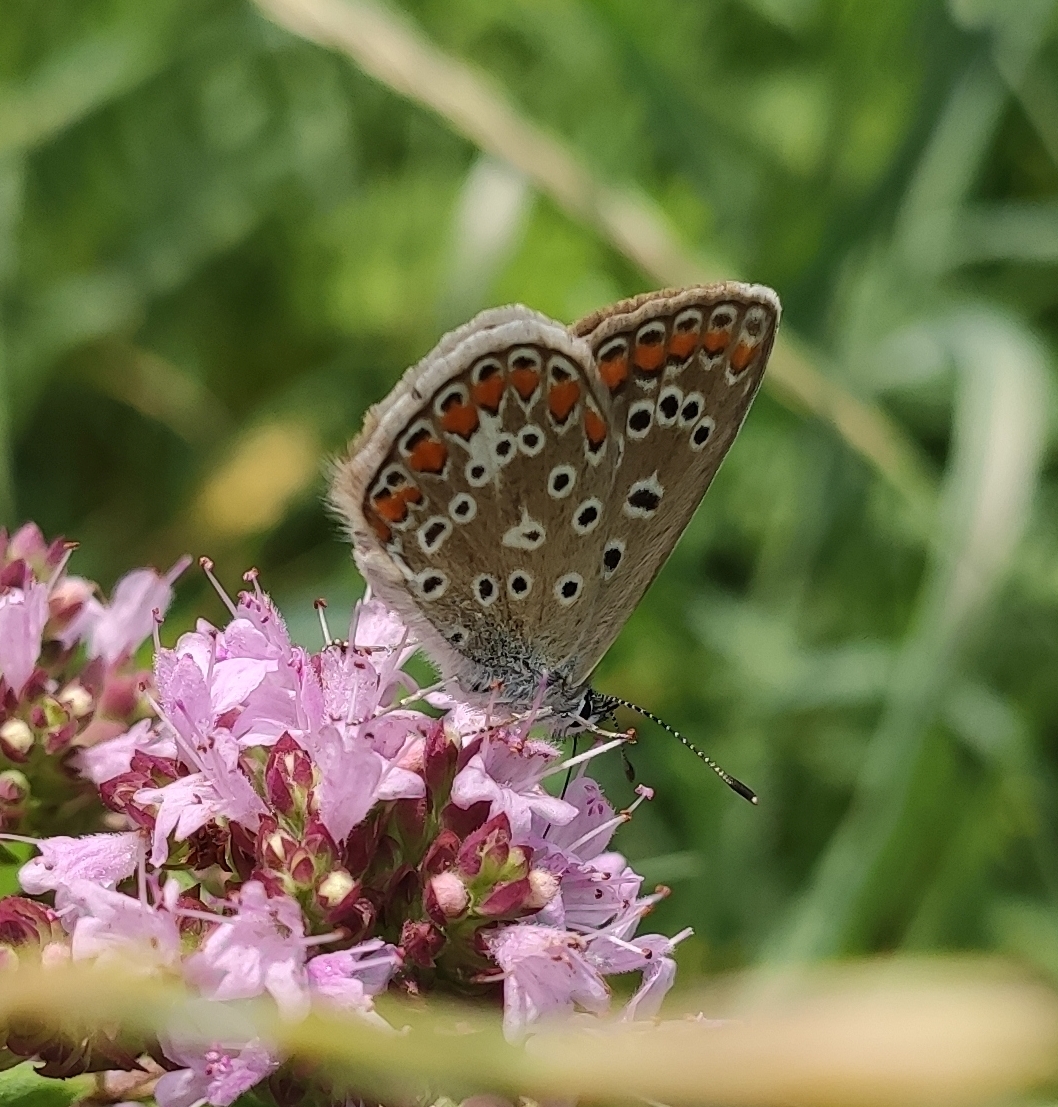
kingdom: Animalia
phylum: Arthropoda
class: Insecta
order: Lepidoptera
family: Lycaenidae
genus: Polyommatus
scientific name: Polyommatus icarus
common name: Common blue
